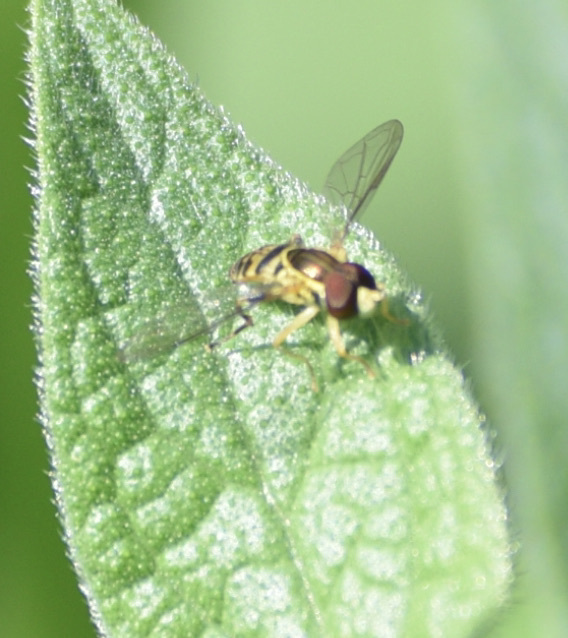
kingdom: Animalia
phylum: Arthropoda
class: Insecta
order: Diptera
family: Syrphidae
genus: Toxomerus
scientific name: Toxomerus geminatus
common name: Eastern calligrapher
